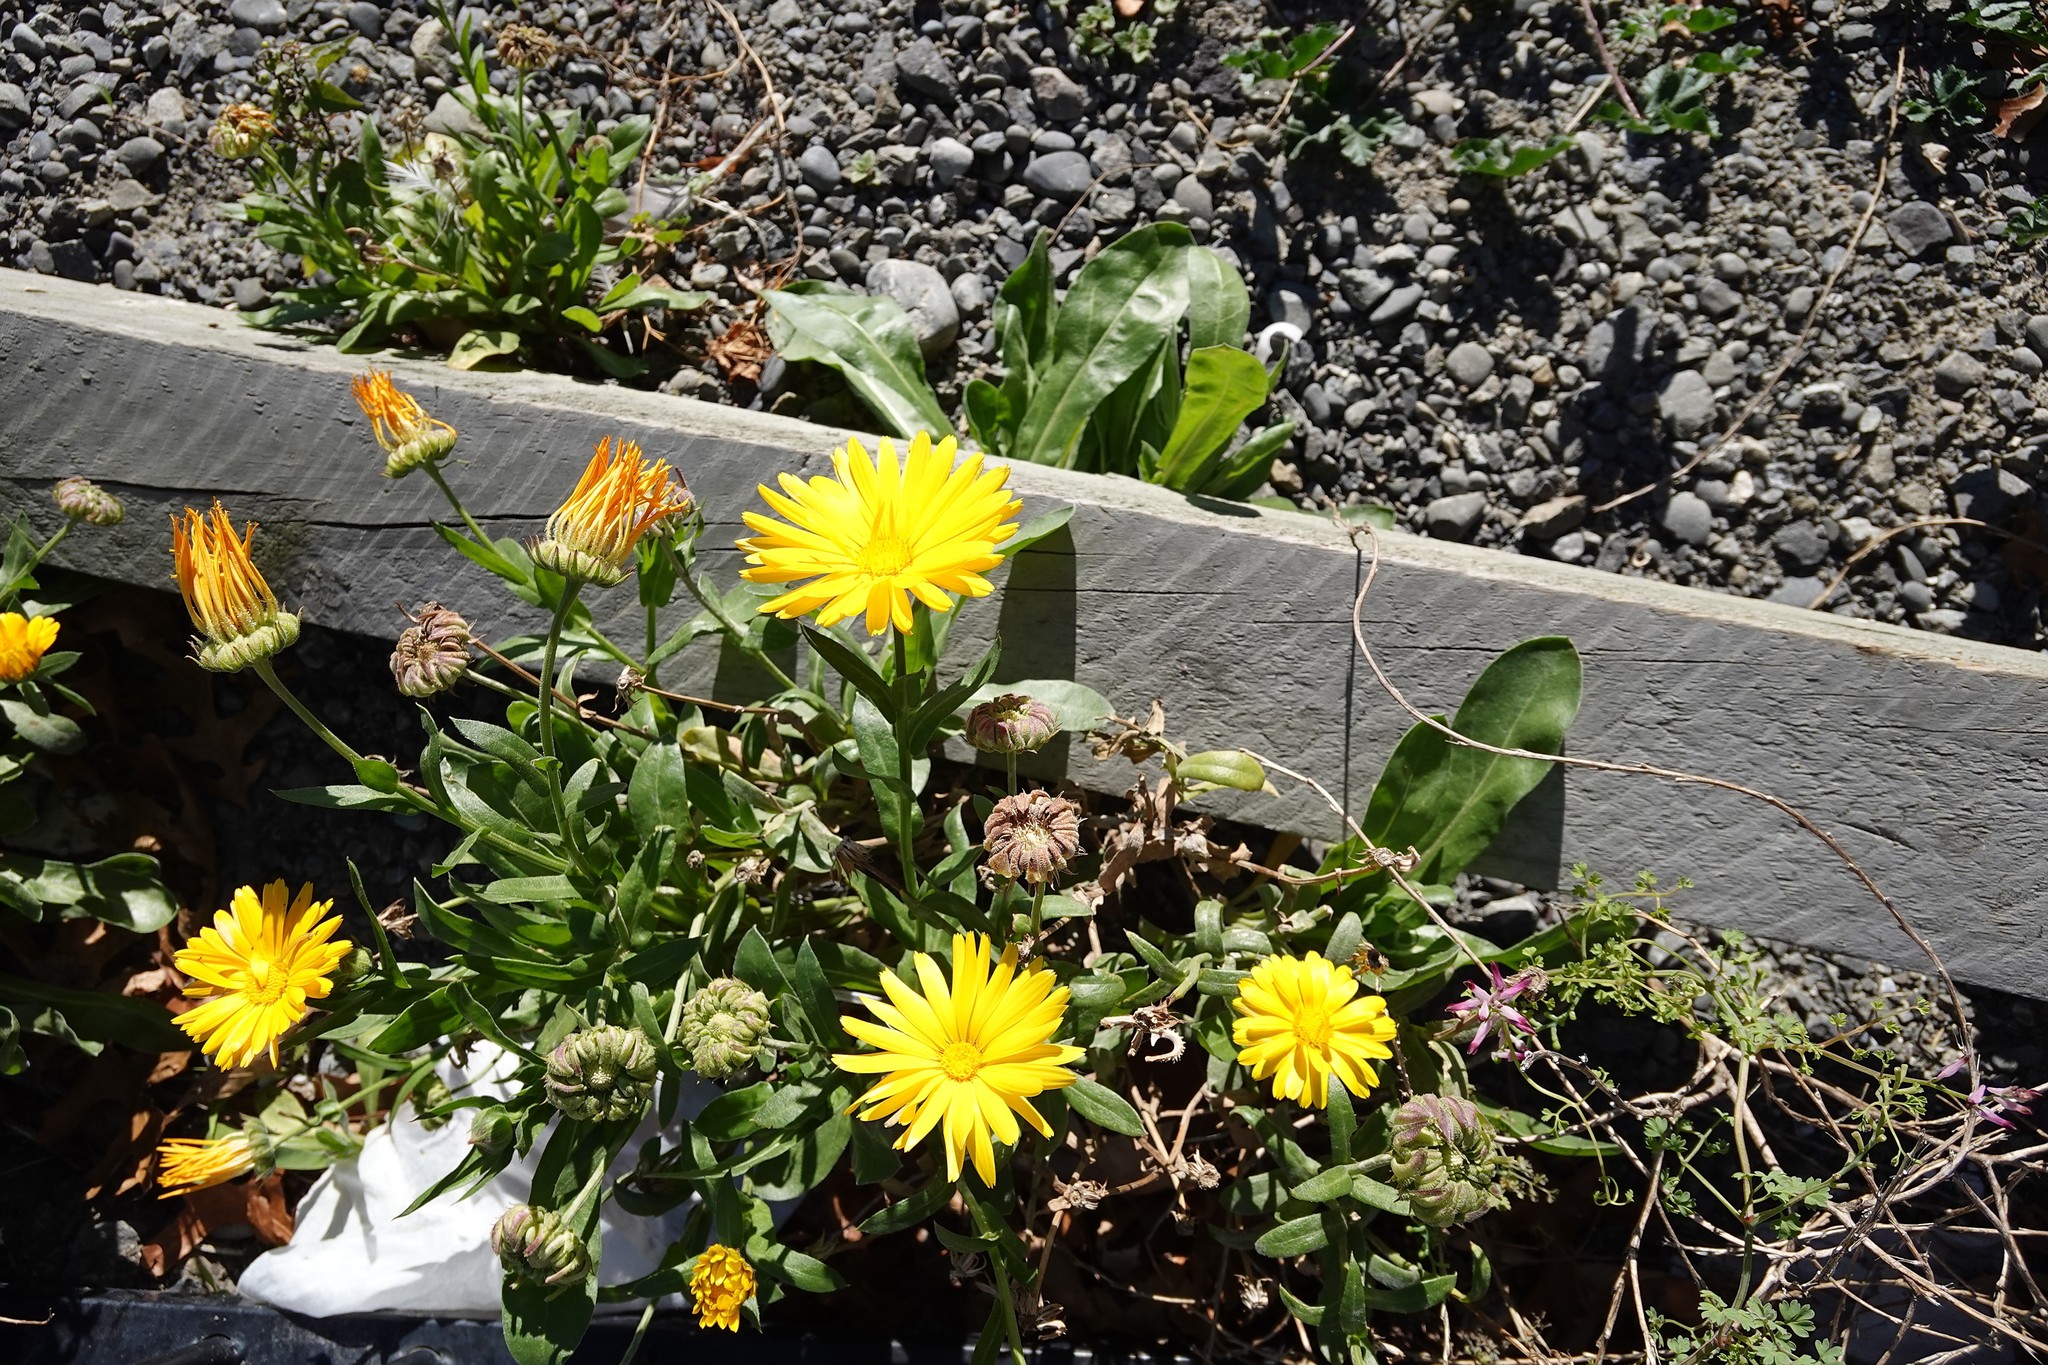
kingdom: Plantae
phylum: Tracheophyta
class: Magnoliopsida
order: Asterales
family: Asteraceae
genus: Calendula
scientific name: Calendula officinalis
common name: Pot marigold
